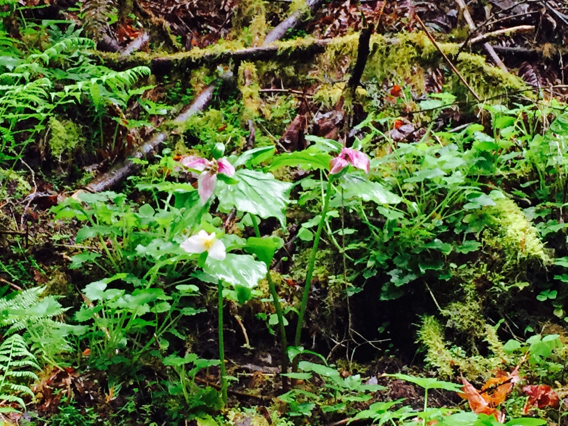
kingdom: Plantae
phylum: Tracheophyta
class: Liliopsida
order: Liliales
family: Melanthiaceae
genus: Trillium
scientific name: Trillium ovatum
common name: Pacific trillium
